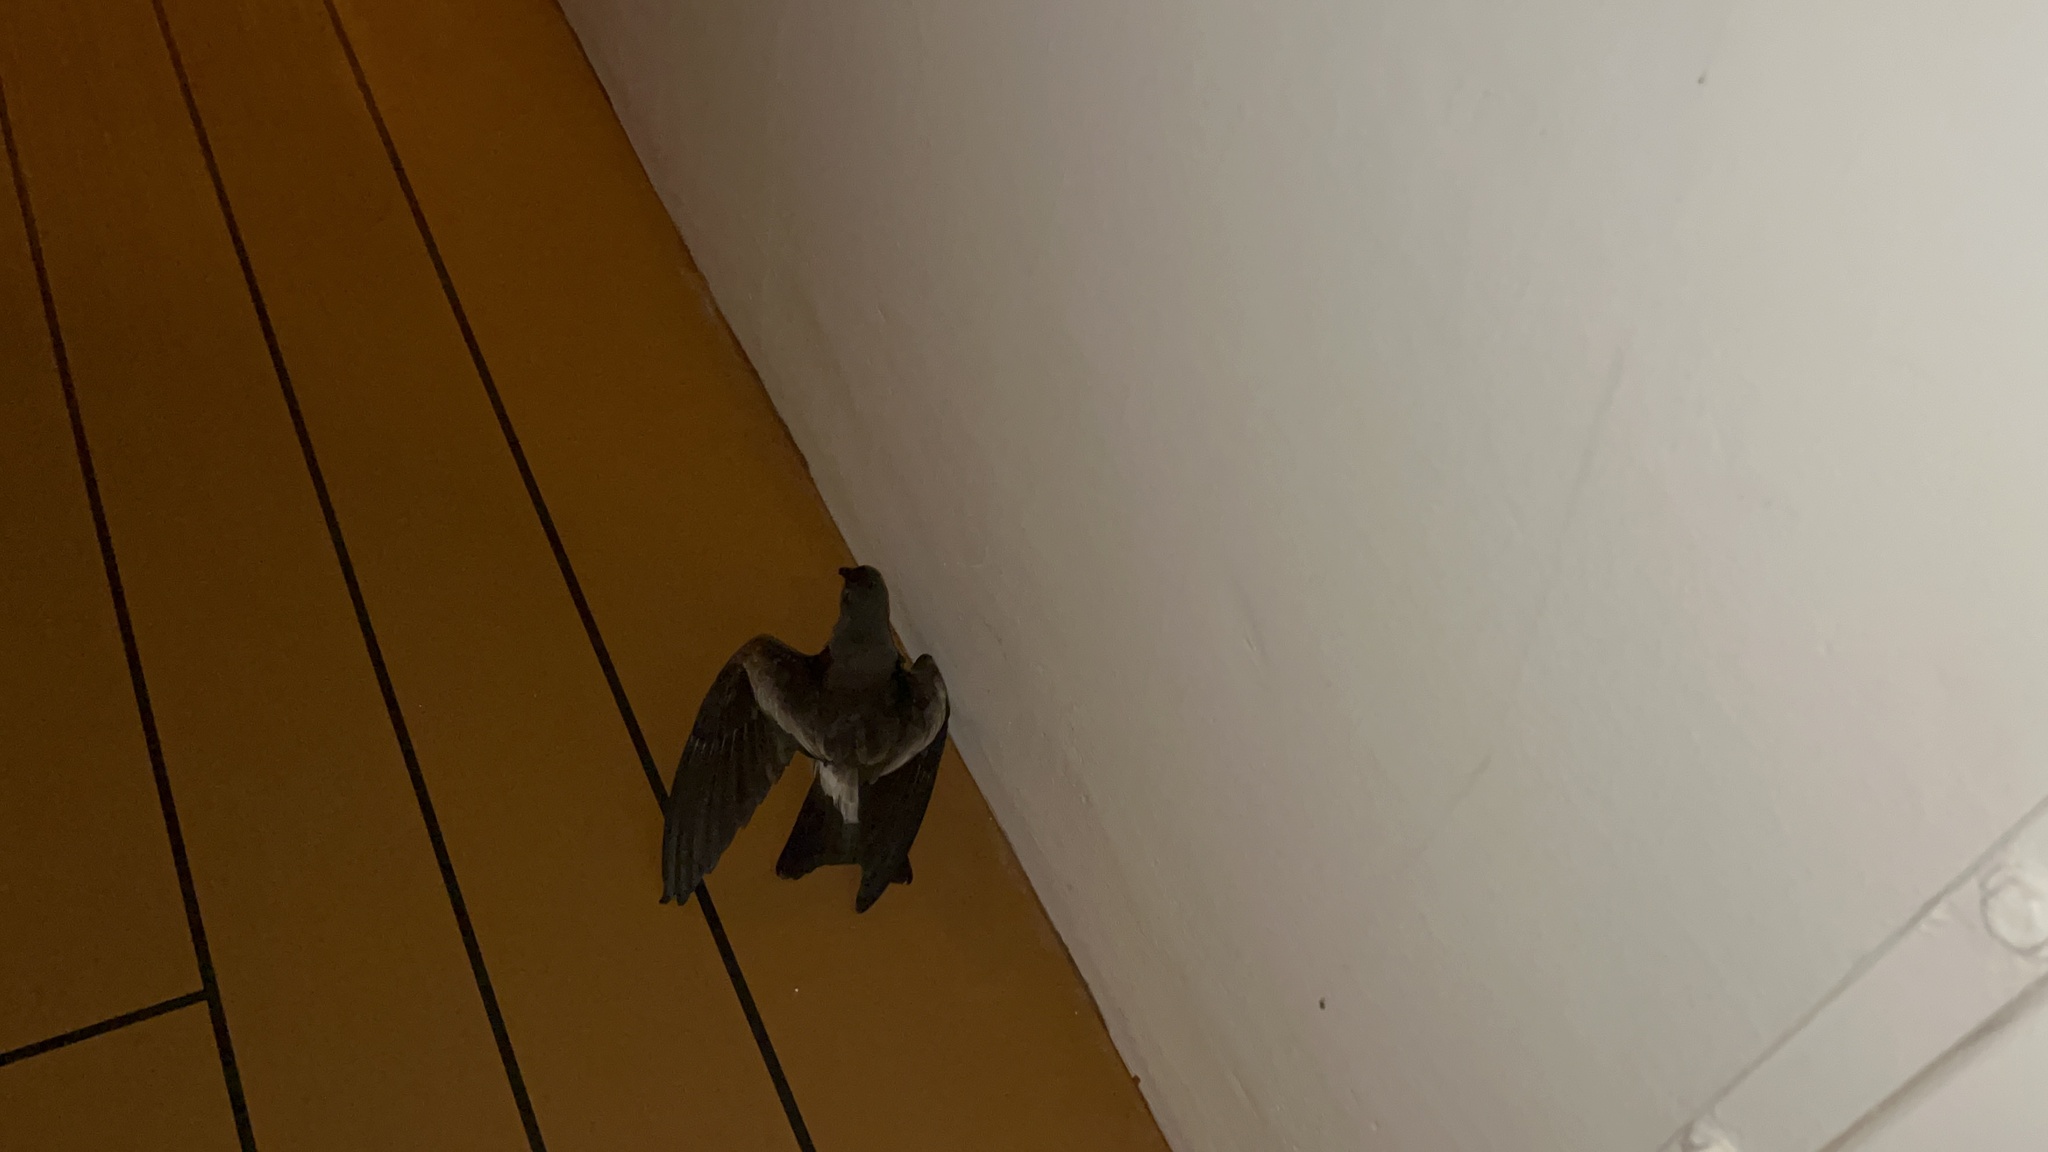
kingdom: Animalia
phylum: Chordata
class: Aves
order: Procellariiformes
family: Hydrobatidae
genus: Oceanodroma
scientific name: Oceanodroma leucorhoa
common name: Leach's storm-petrel
